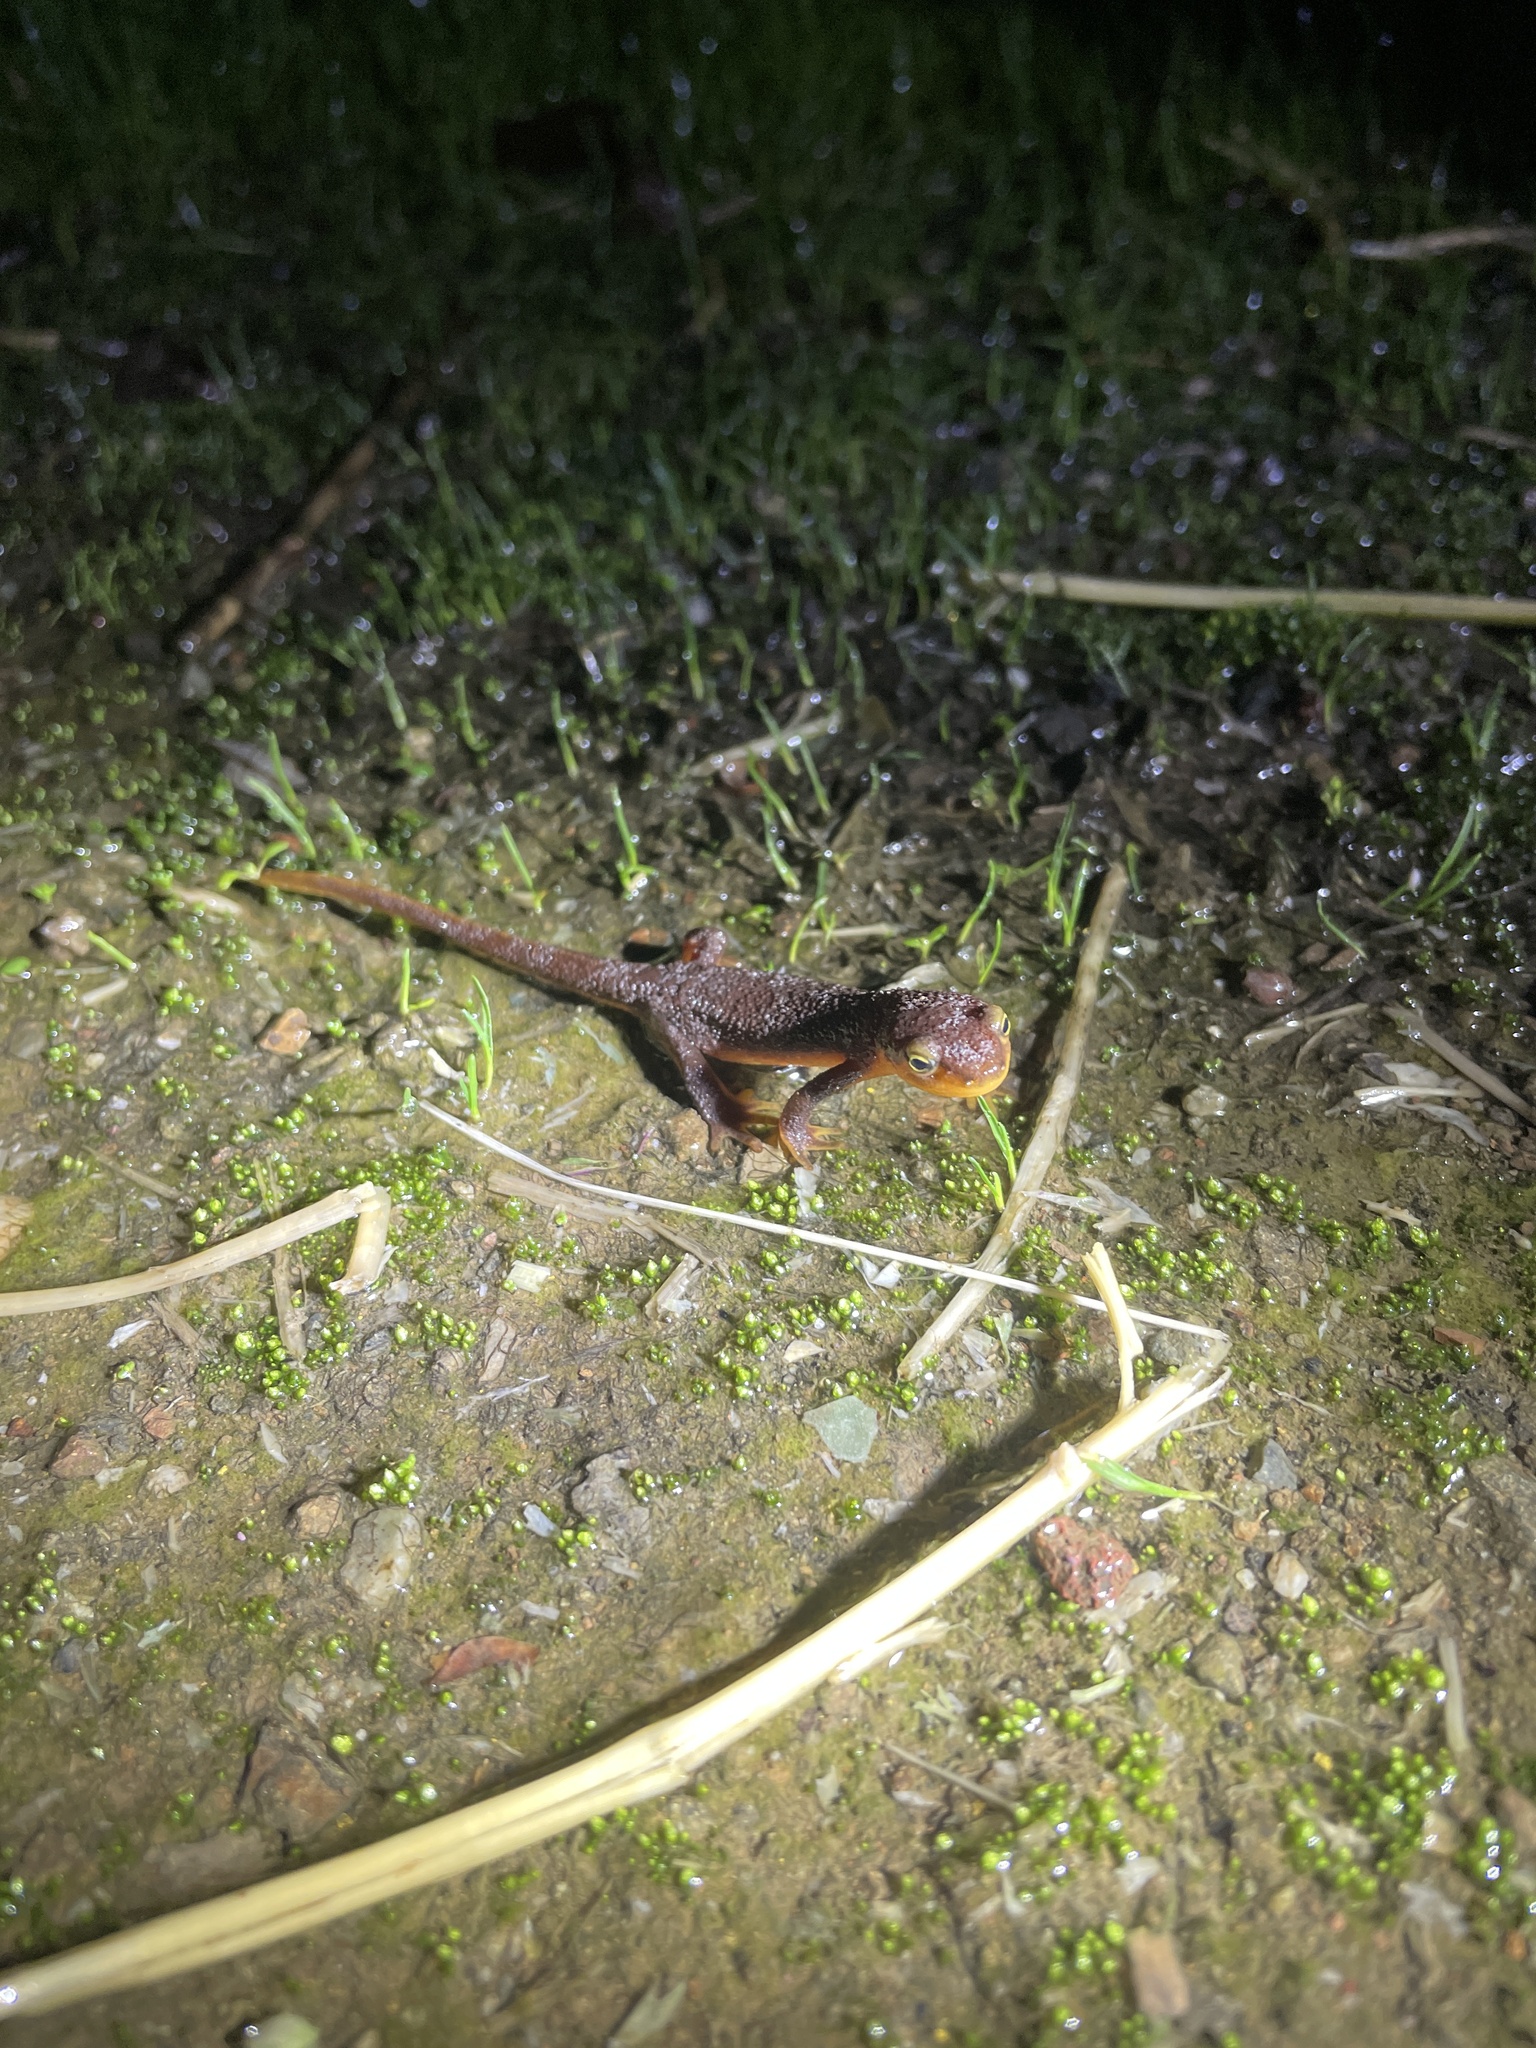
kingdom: Animalia
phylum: Chordata
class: Amphibia
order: Caudata
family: Salamandridae
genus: Taricha
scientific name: Taricha torosa
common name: California newt
